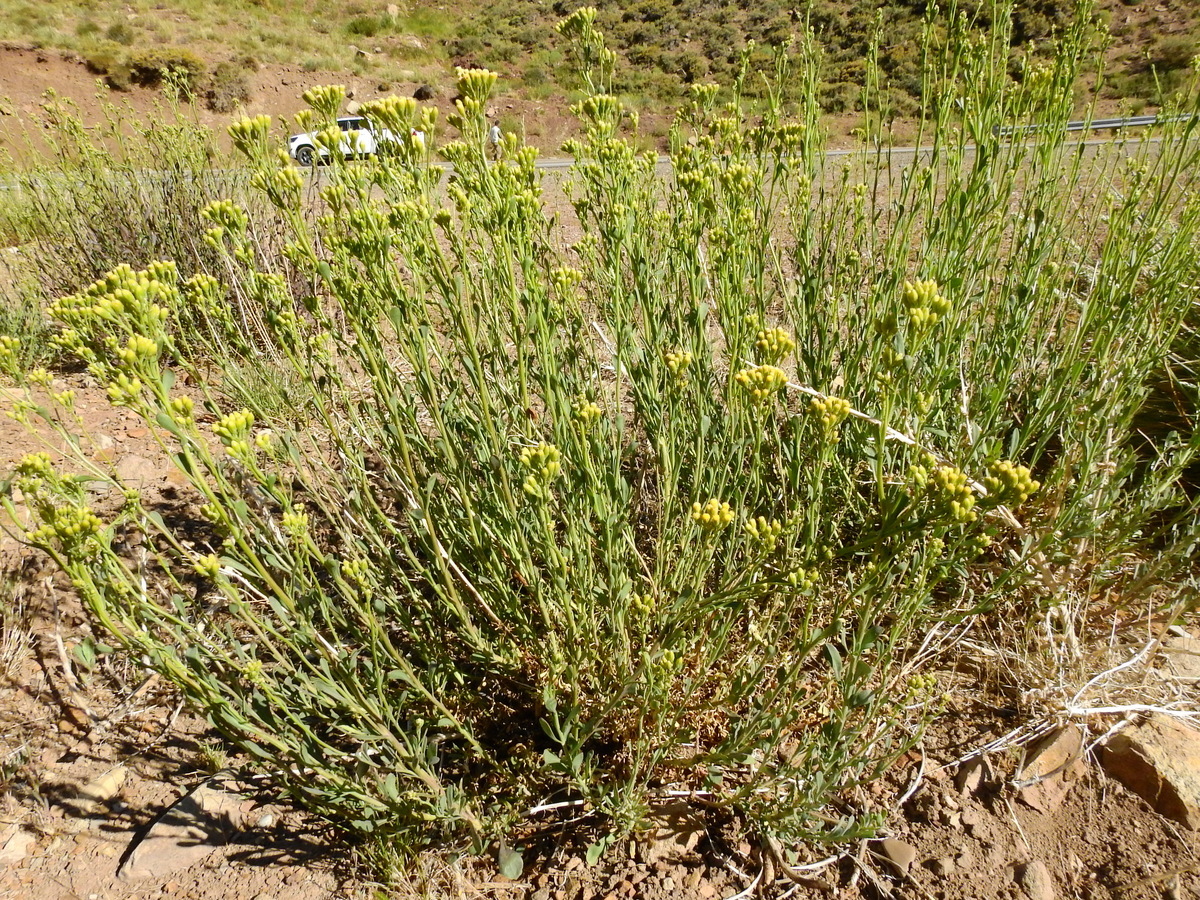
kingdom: Plantae
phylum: Tracheophyta
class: Magnoliopsida
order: Asterales
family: Asteraceae
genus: Senecio
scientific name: Senecio subumbellatus
